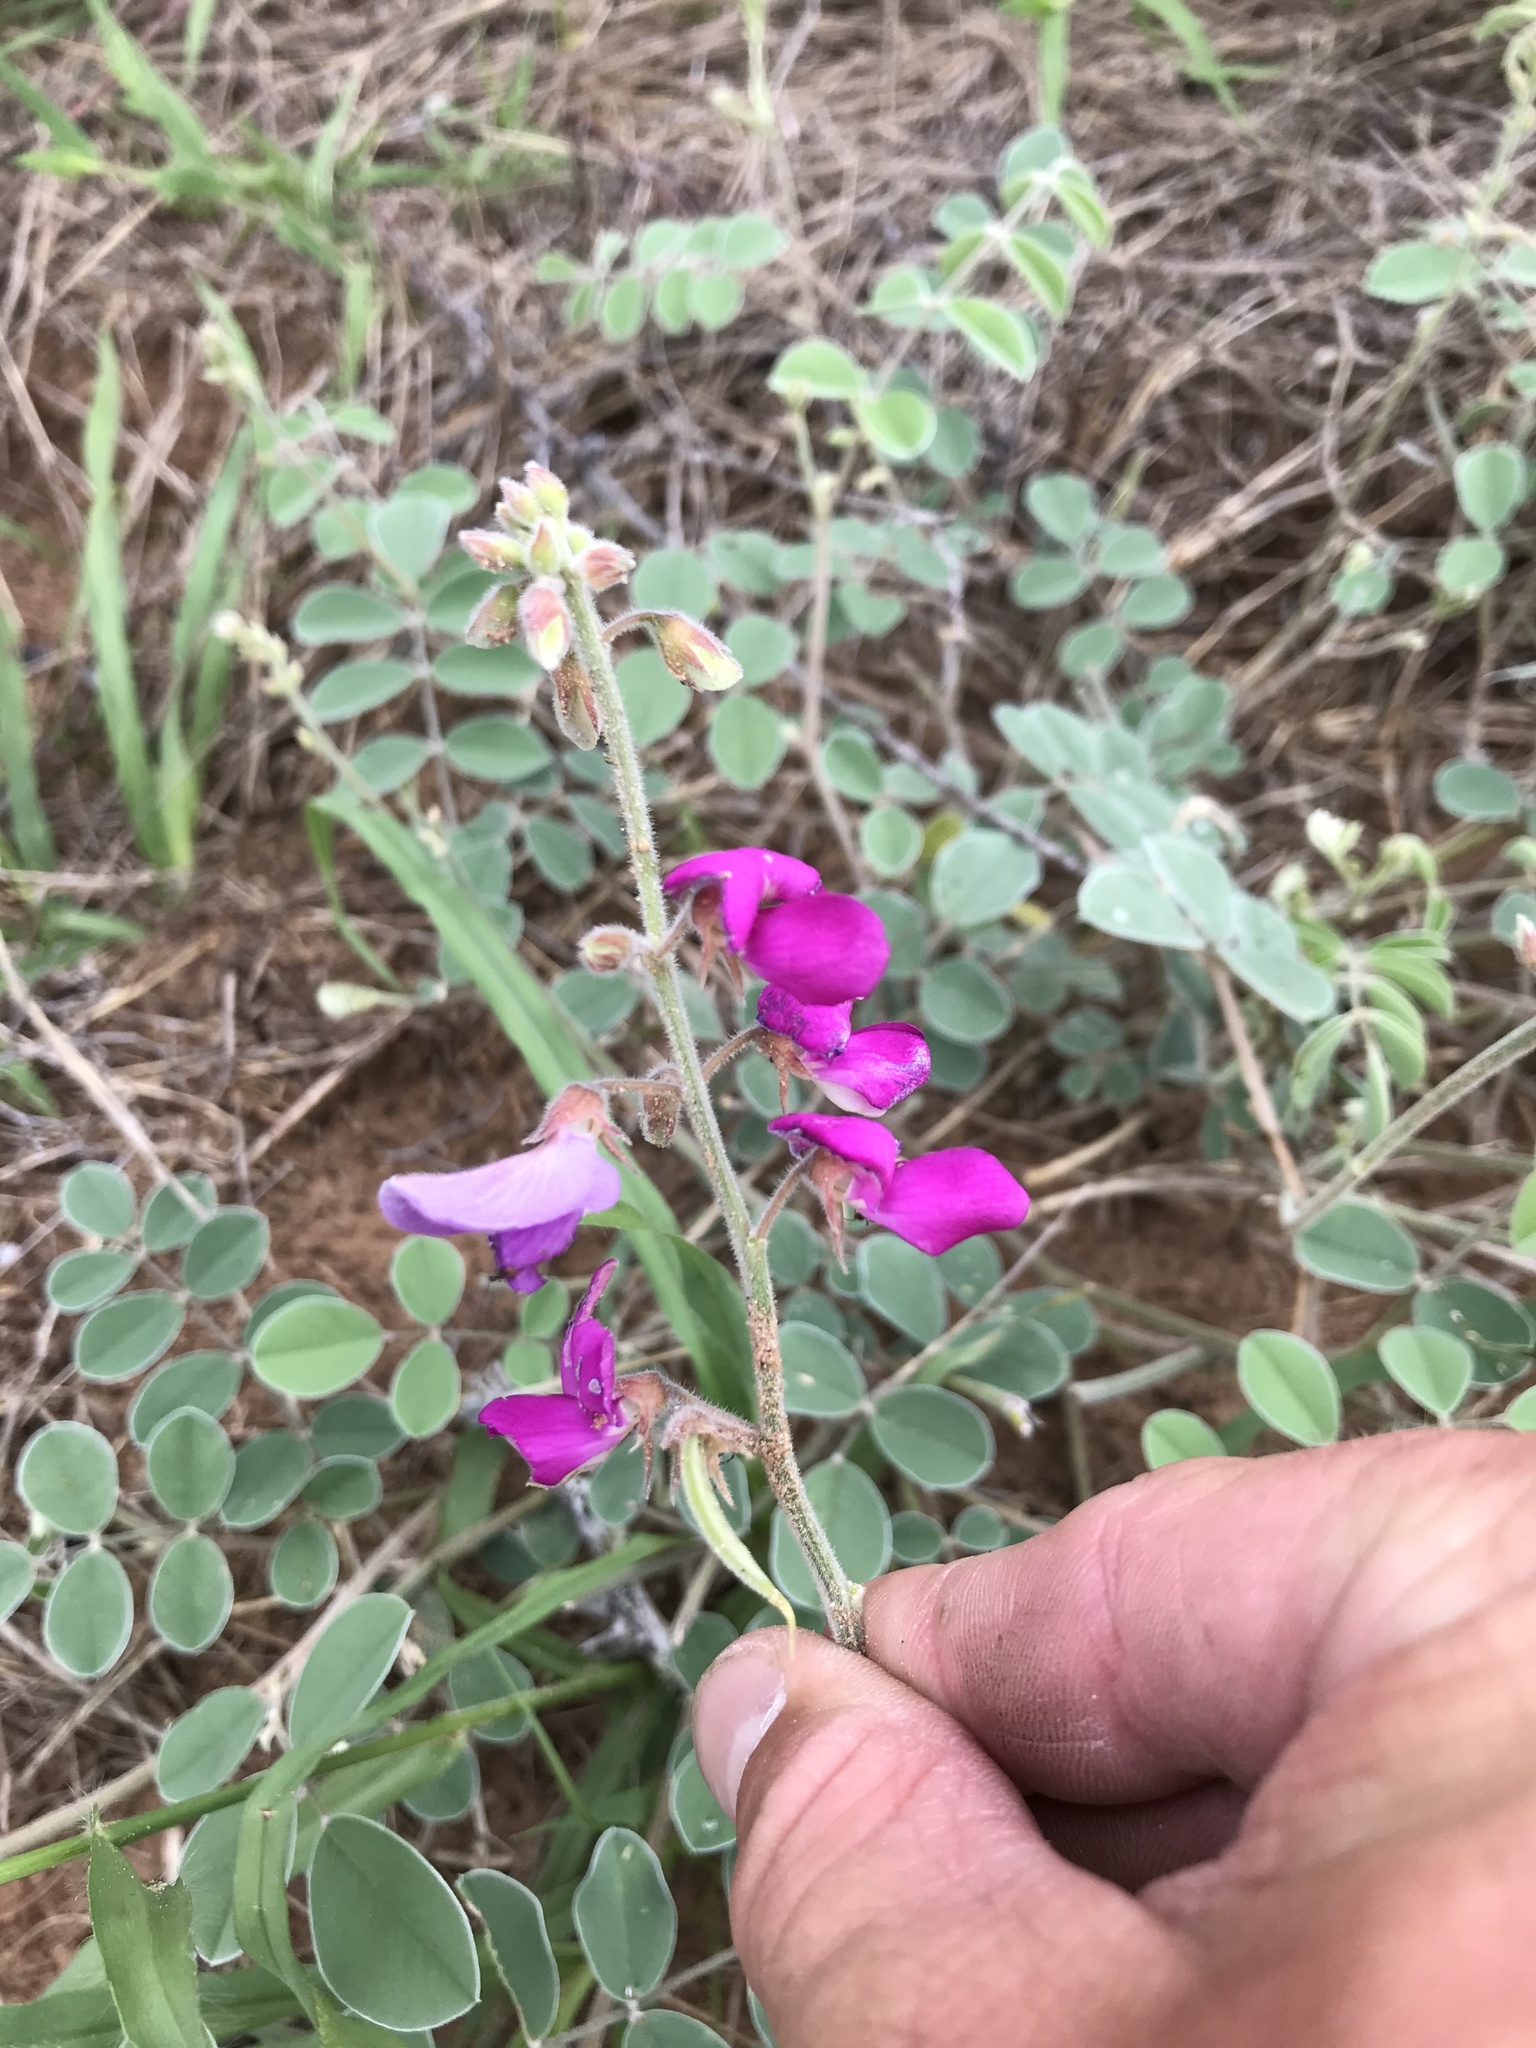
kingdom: Plantae
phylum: Tracheophyta
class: Magnoliopsida
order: Fabales
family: Fabaceae
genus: Tephrosia
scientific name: Tephrosia lindheimeri
